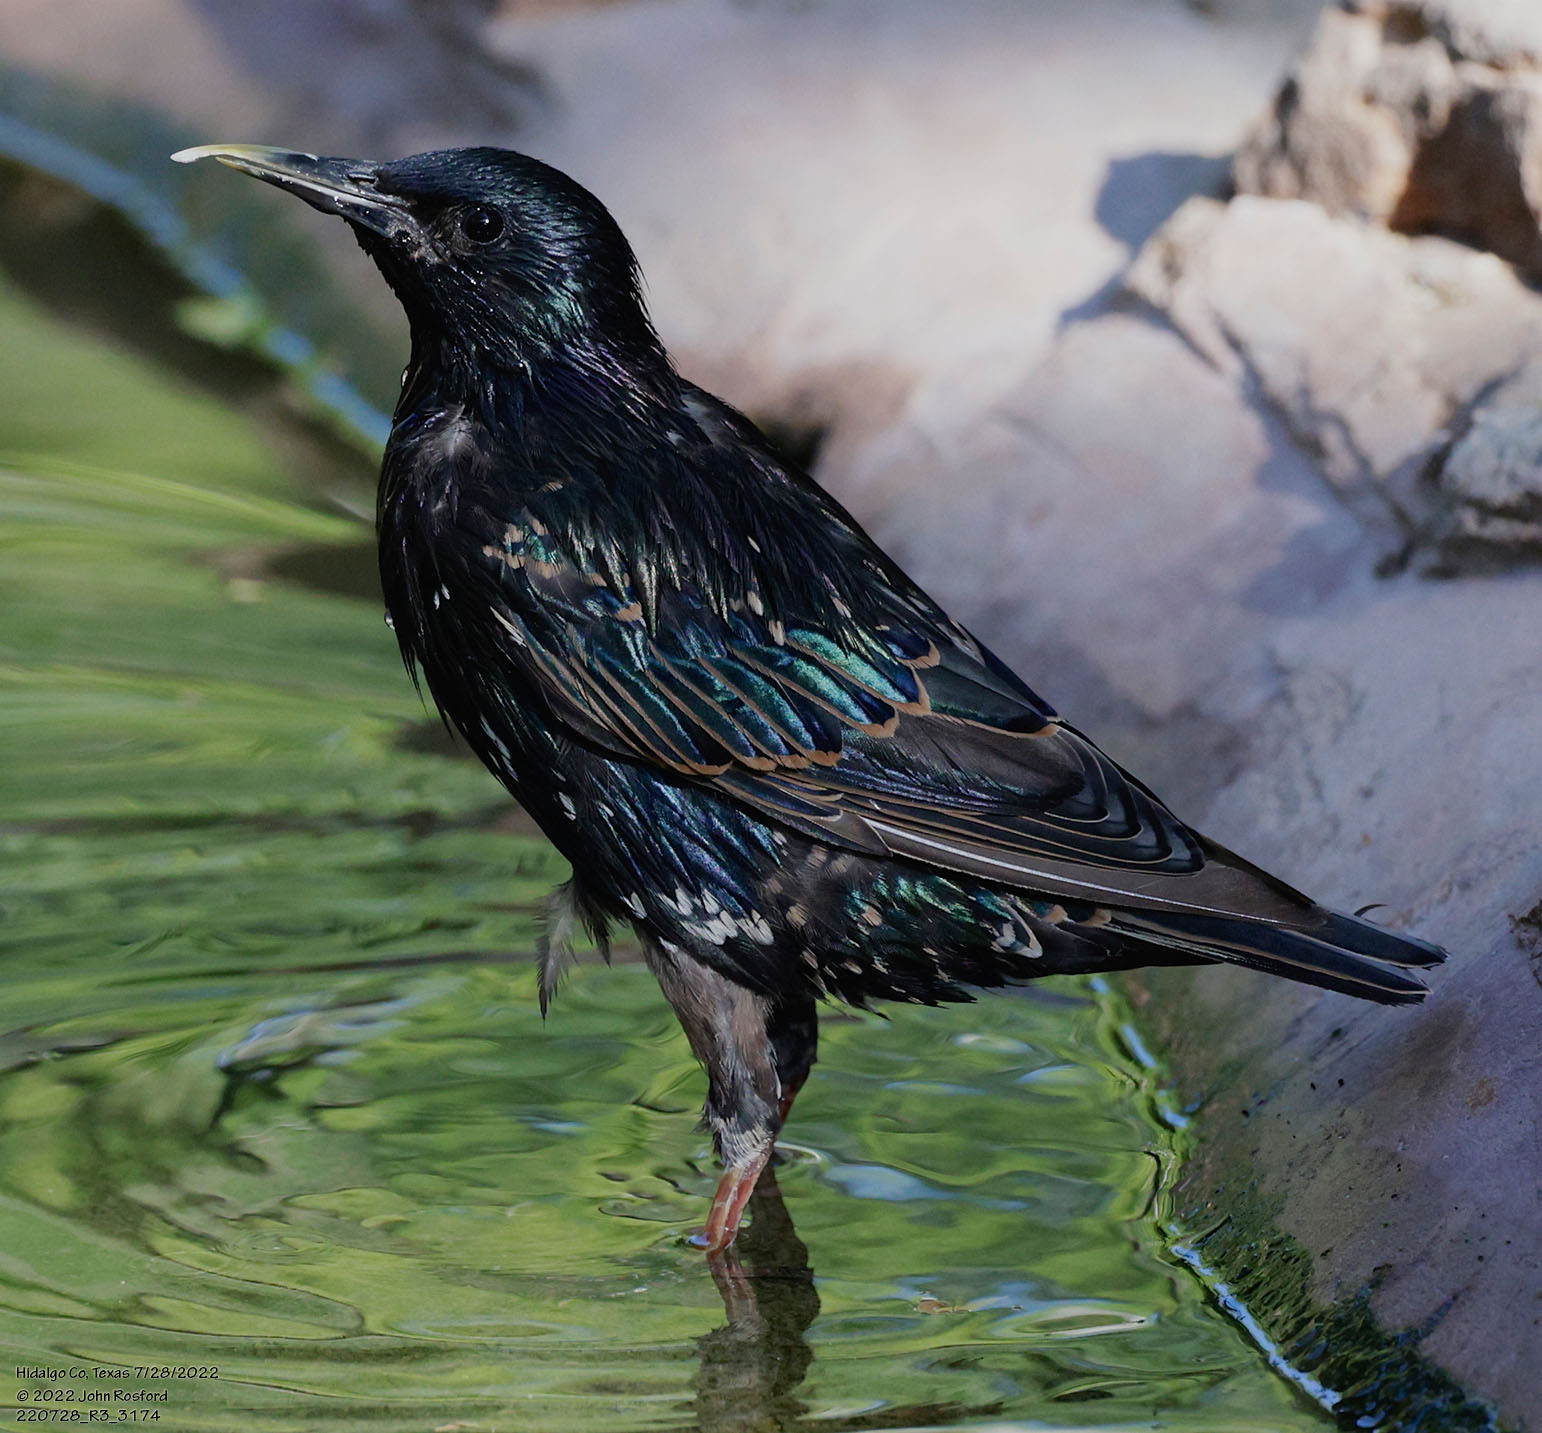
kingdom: Animalia
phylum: Chordata
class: Aves
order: Passeriformes
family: Sturnidae
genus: Sturnus
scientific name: Sturnus vulgaris
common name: Common starling
